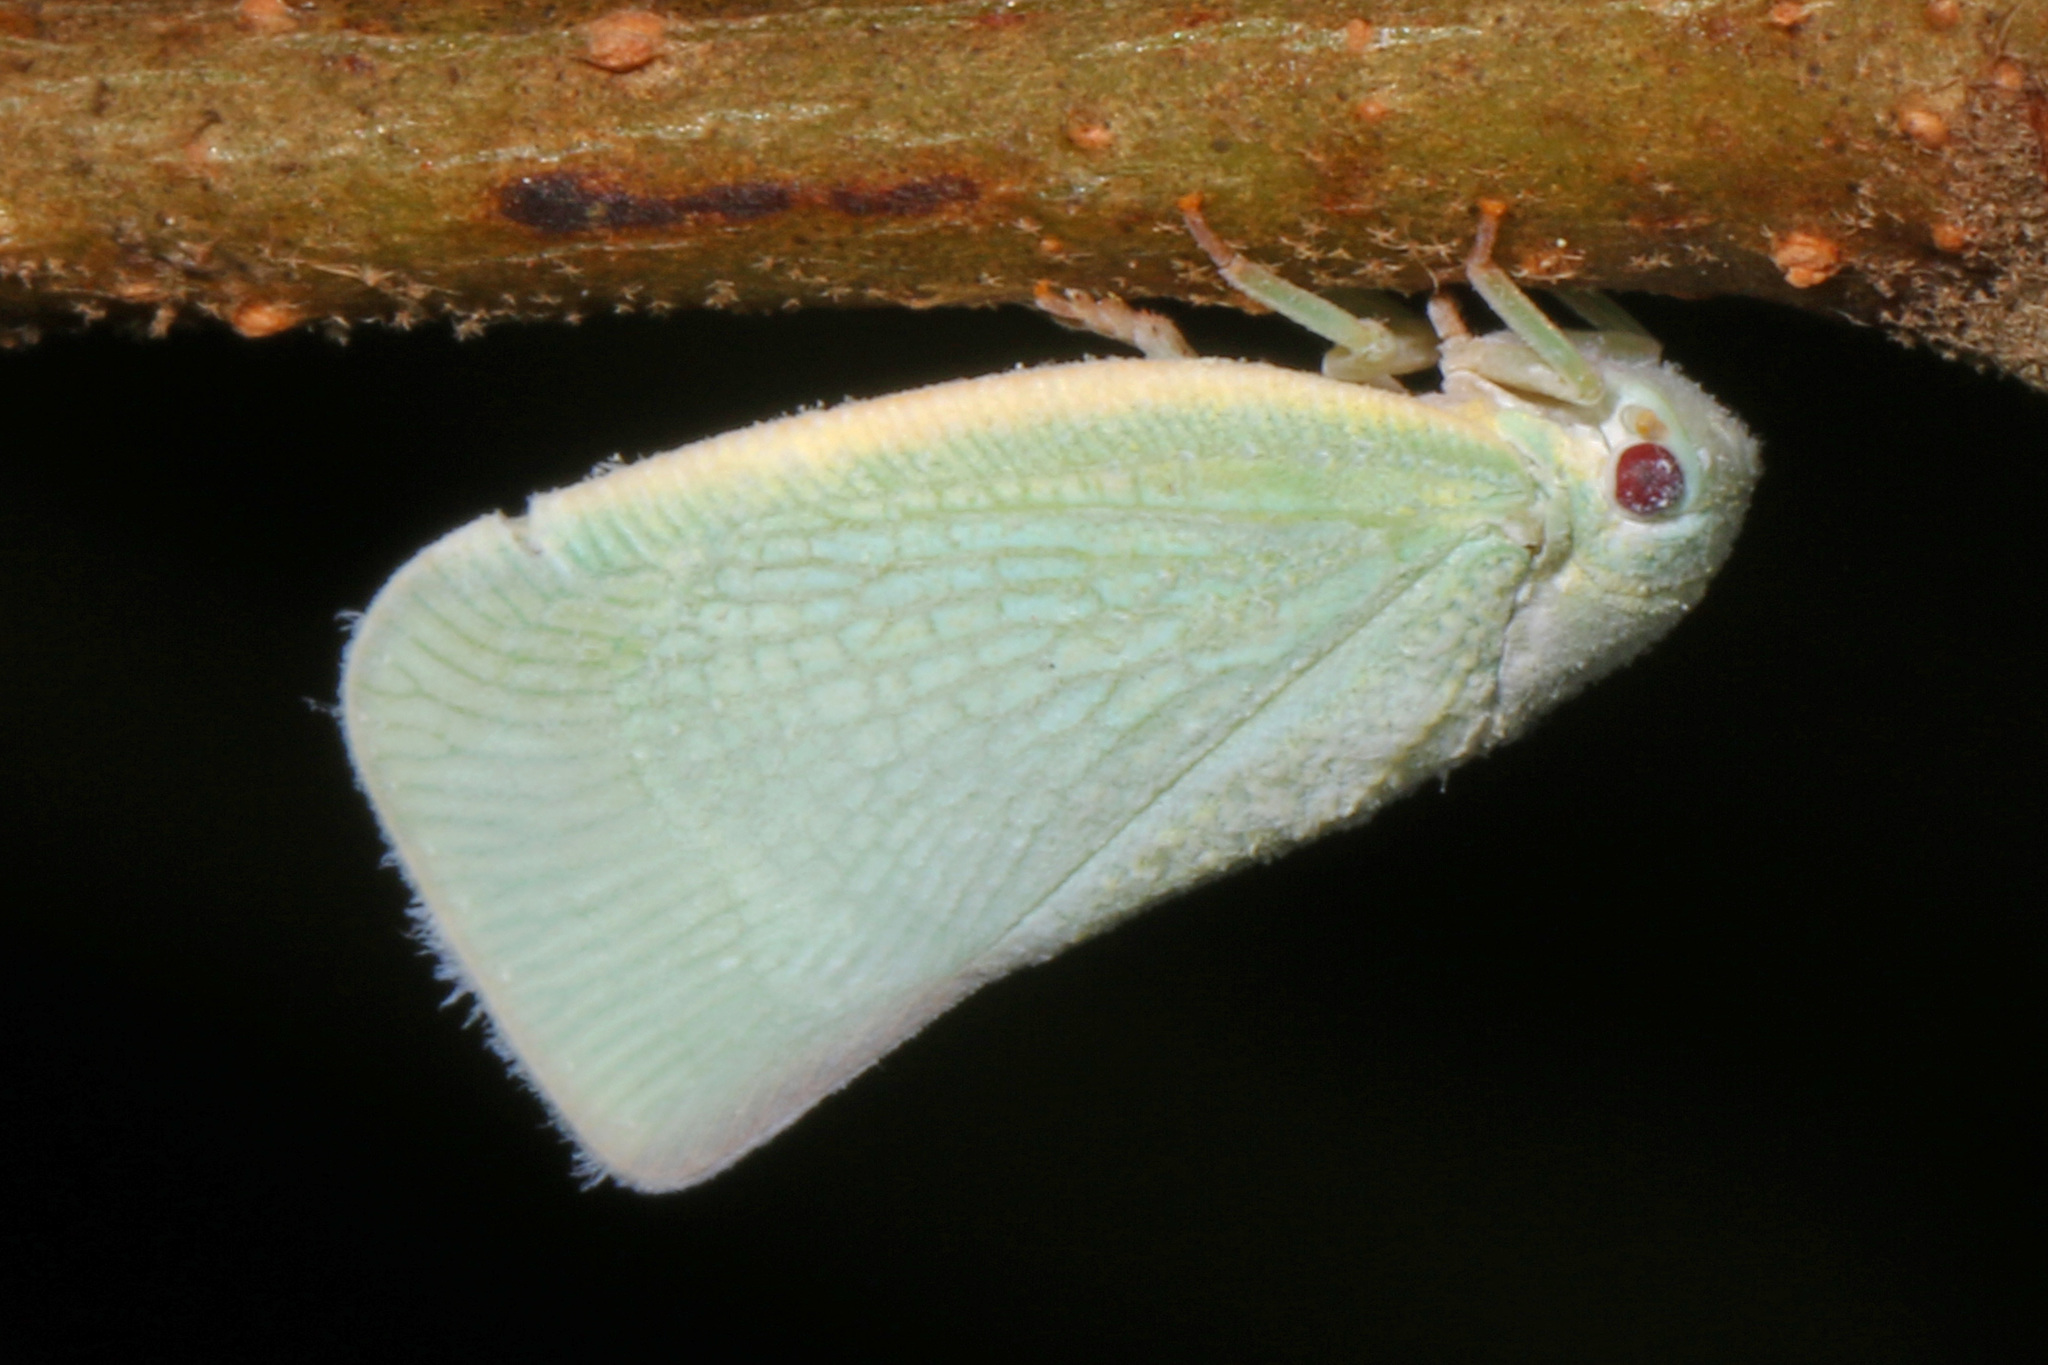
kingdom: Animalia
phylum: Arthropoda
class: Insecta
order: Hemiptera
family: Flatidae
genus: Flatormenis
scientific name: Flatormenis proxima
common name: Northern flatid planthopper
